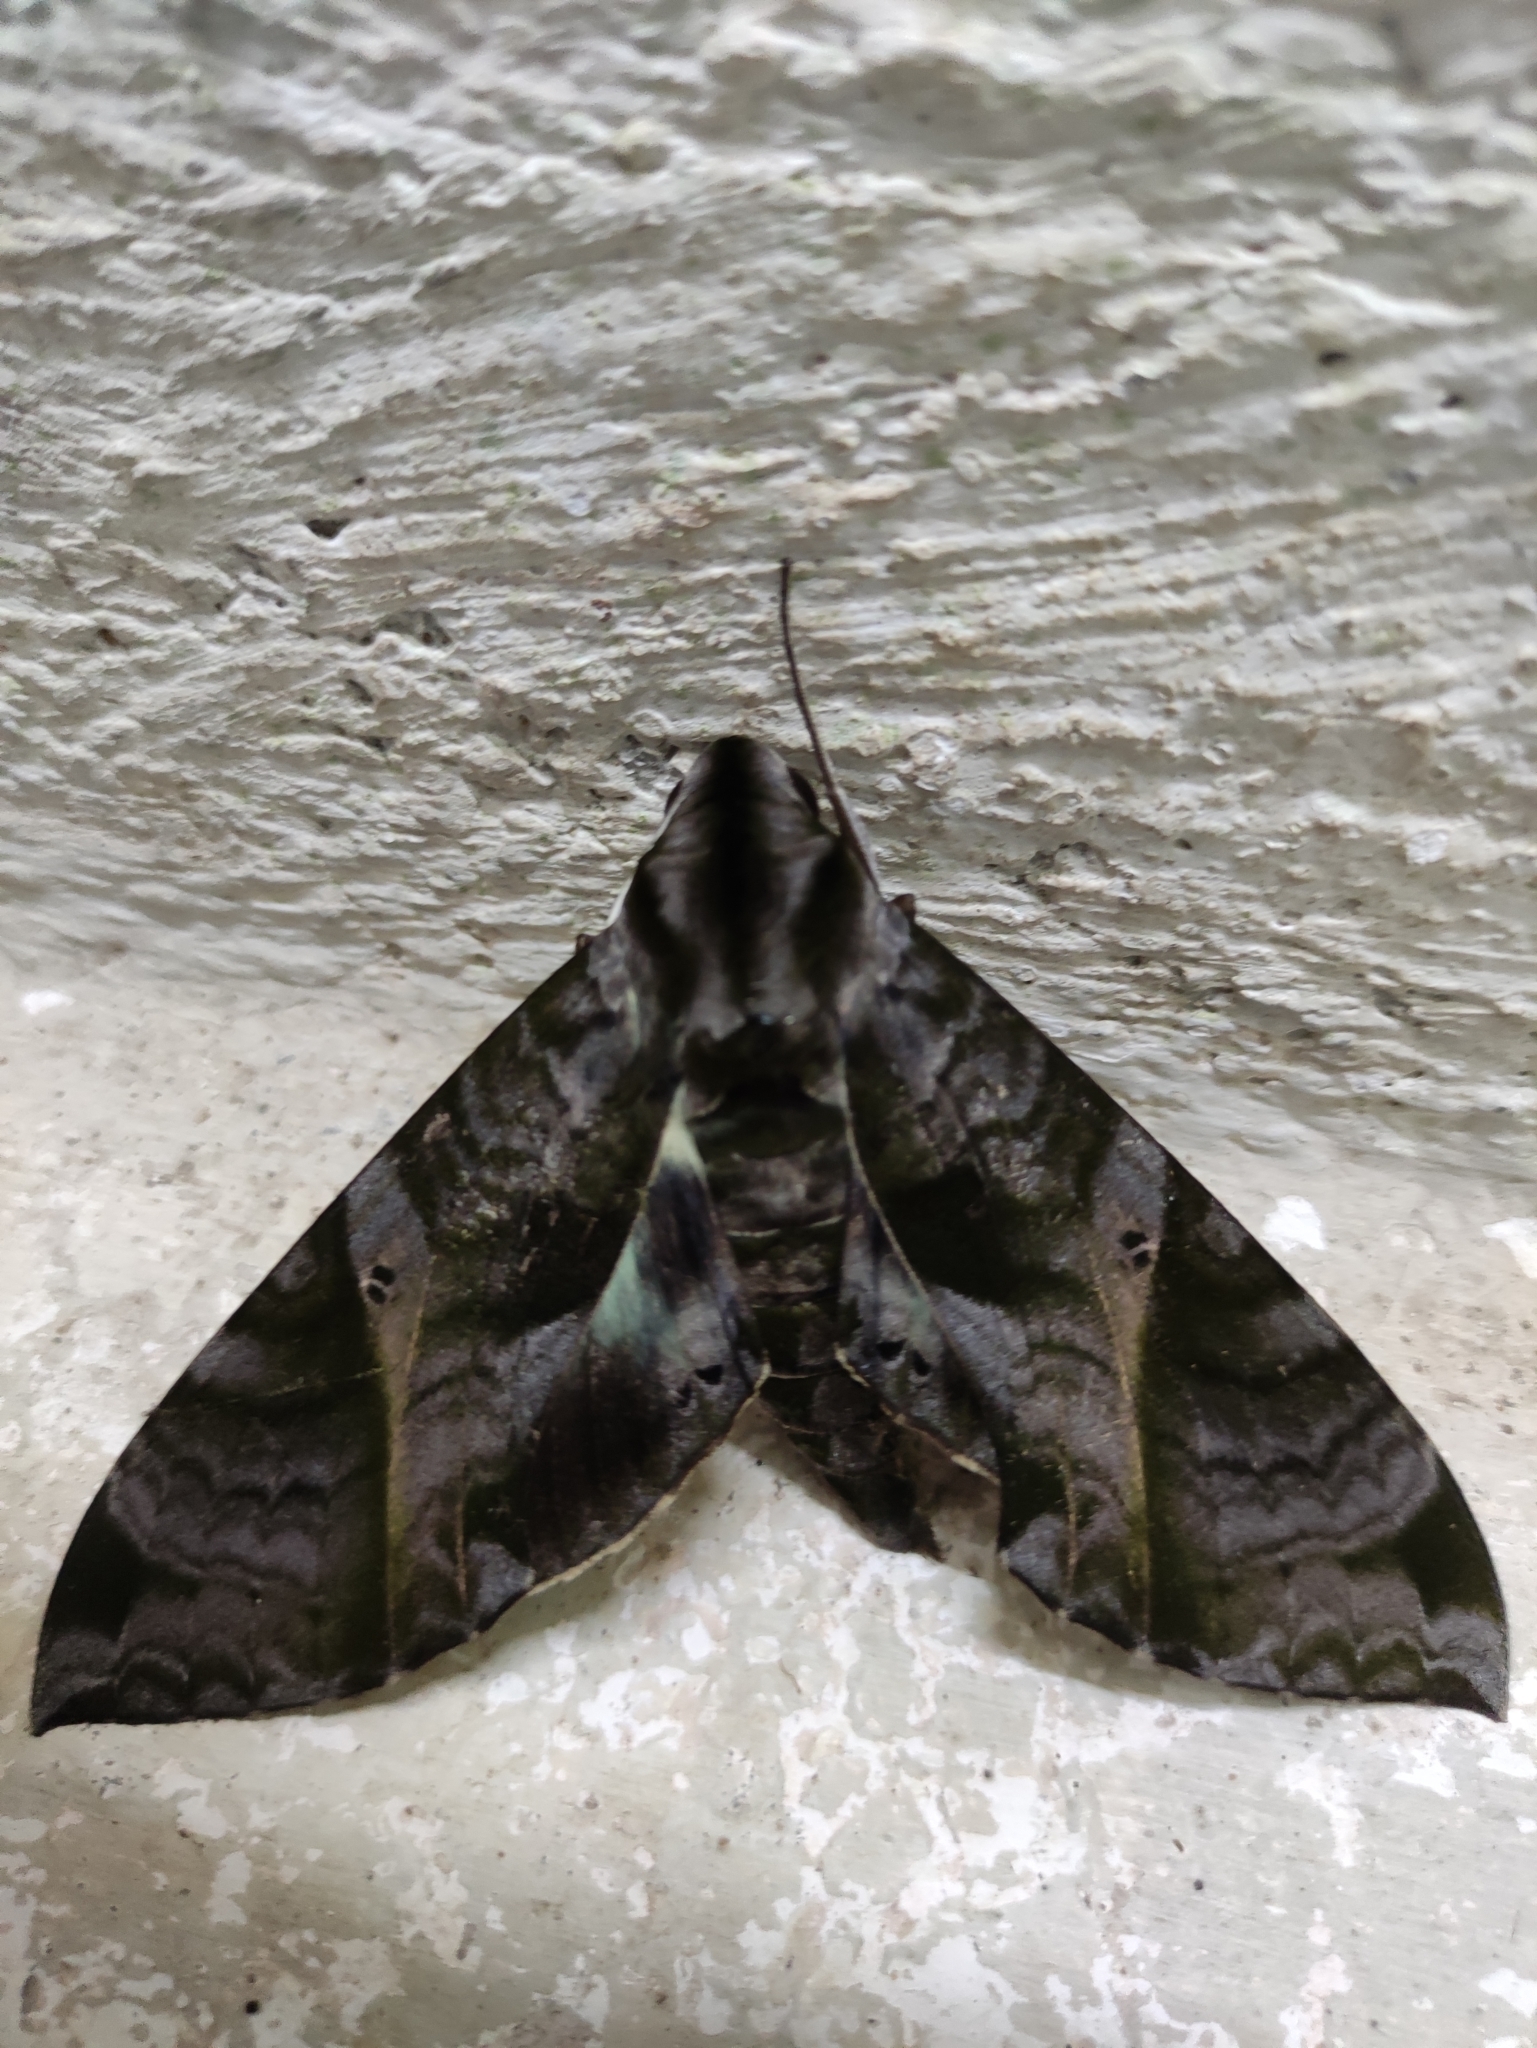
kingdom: Animalia
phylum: Arthropoda
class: Insecta
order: Lepidoptera
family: Sphingidae
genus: Eumorpha
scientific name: Eumorpha triangulum
